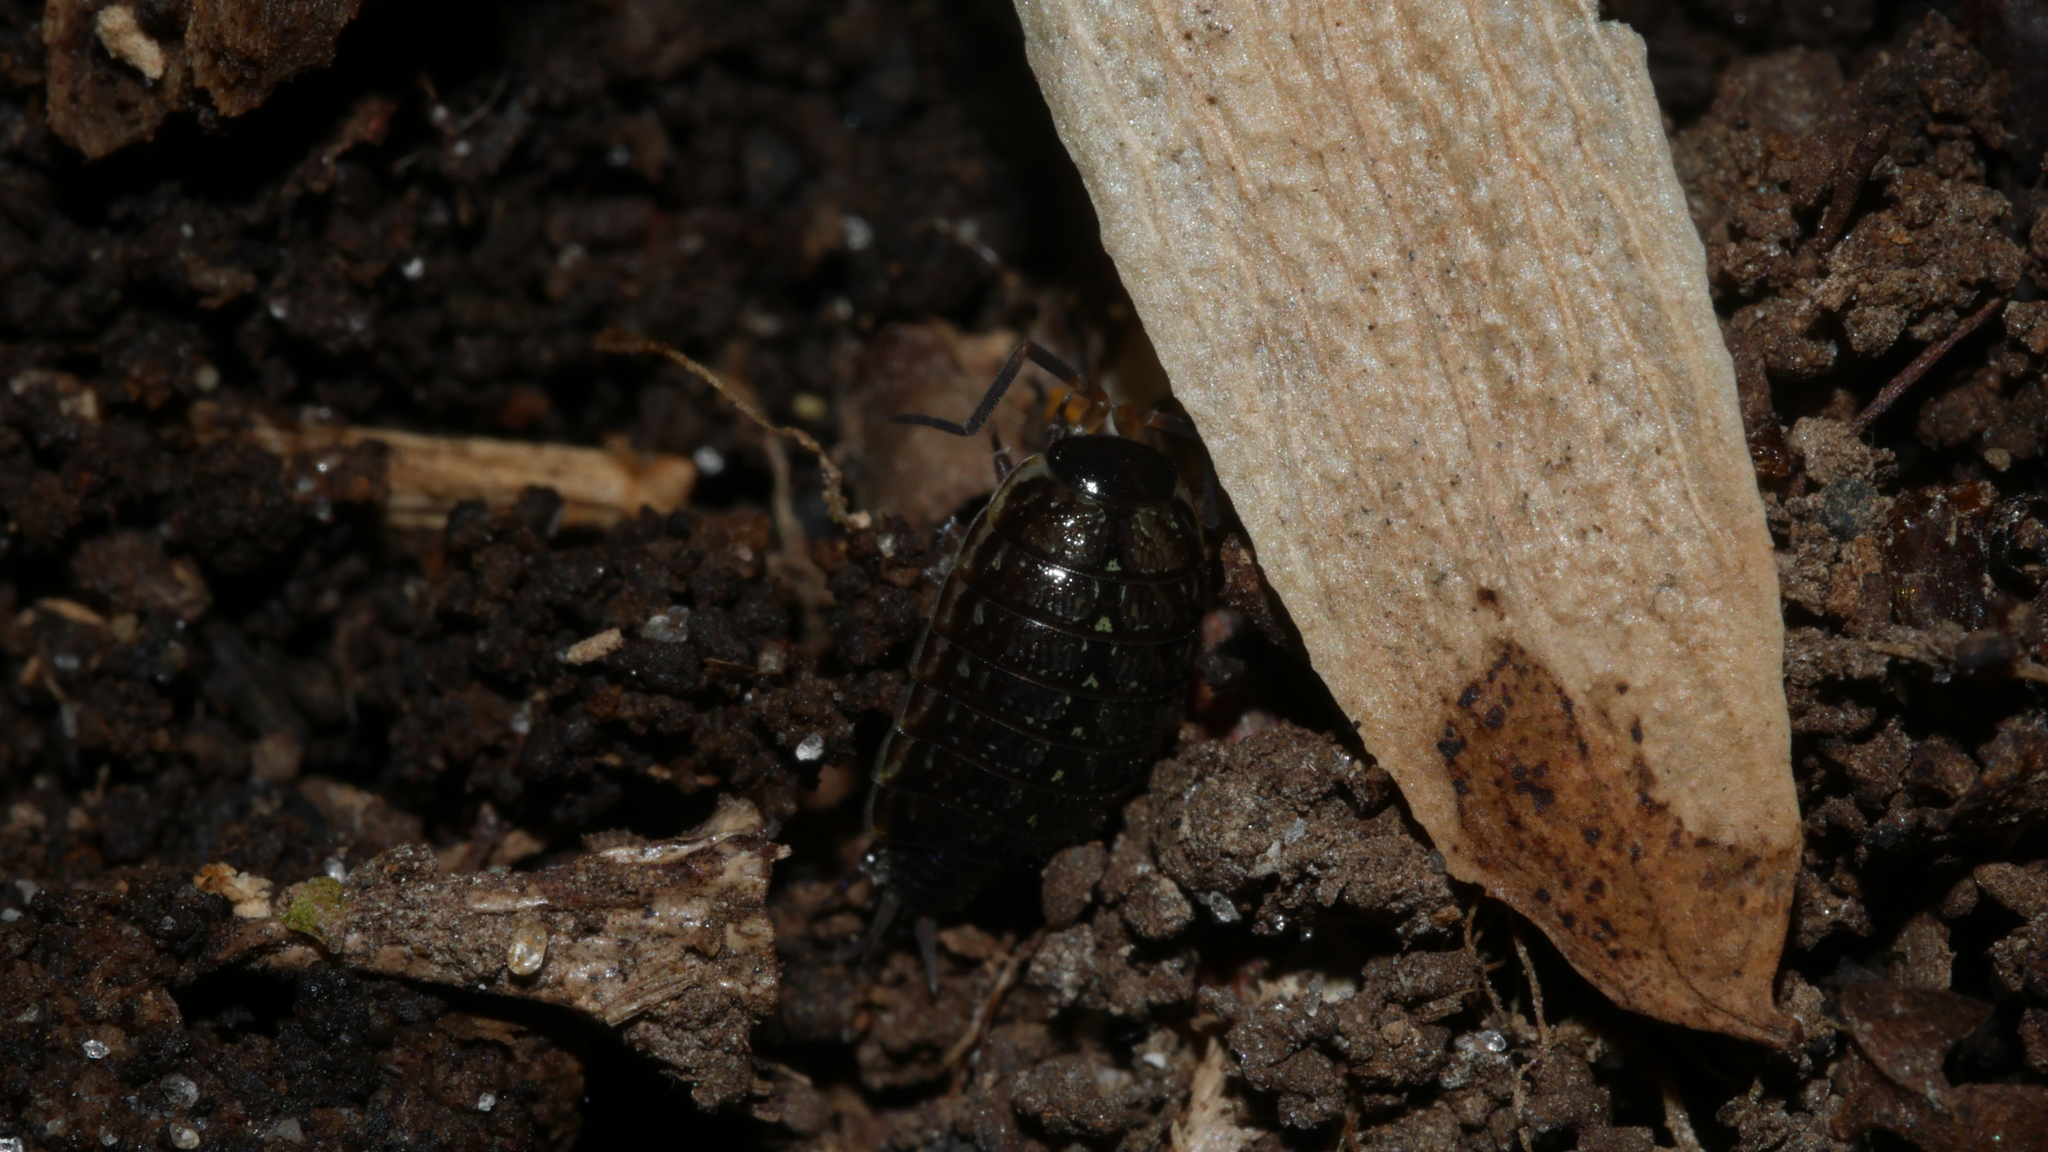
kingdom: Animalia
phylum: Arthropoda
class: Malacostraca
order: Isopoda
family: Philosciidae
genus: Philoscia
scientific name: Philoscia muscorum
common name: Common striped woodlouse
